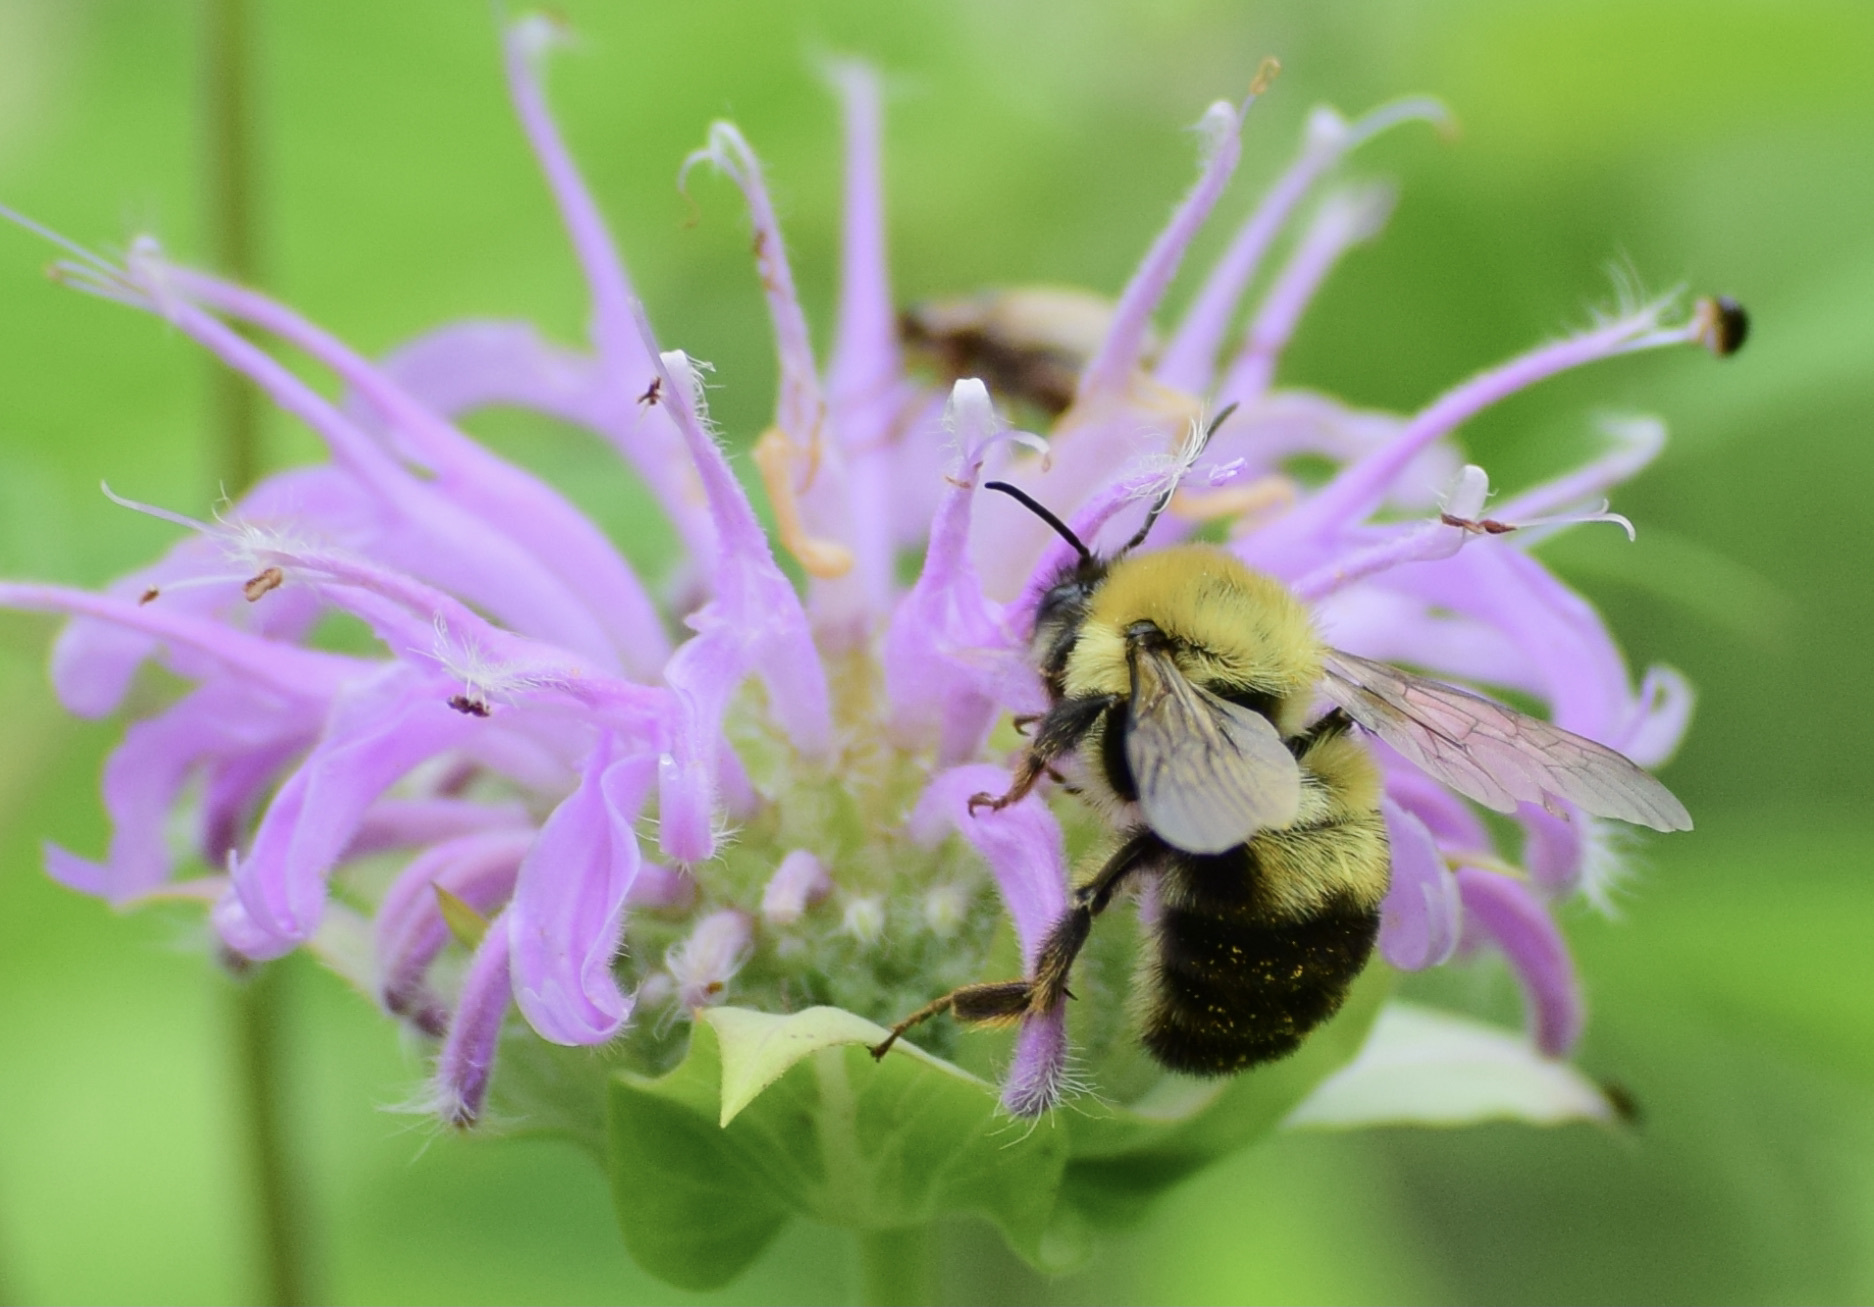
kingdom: Animalia
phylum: Arthropoda
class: Insecta
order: Hymenoptera
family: Apidae
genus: Bombus
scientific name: Bombus bimaculatus
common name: Two-spotted bumble bee
